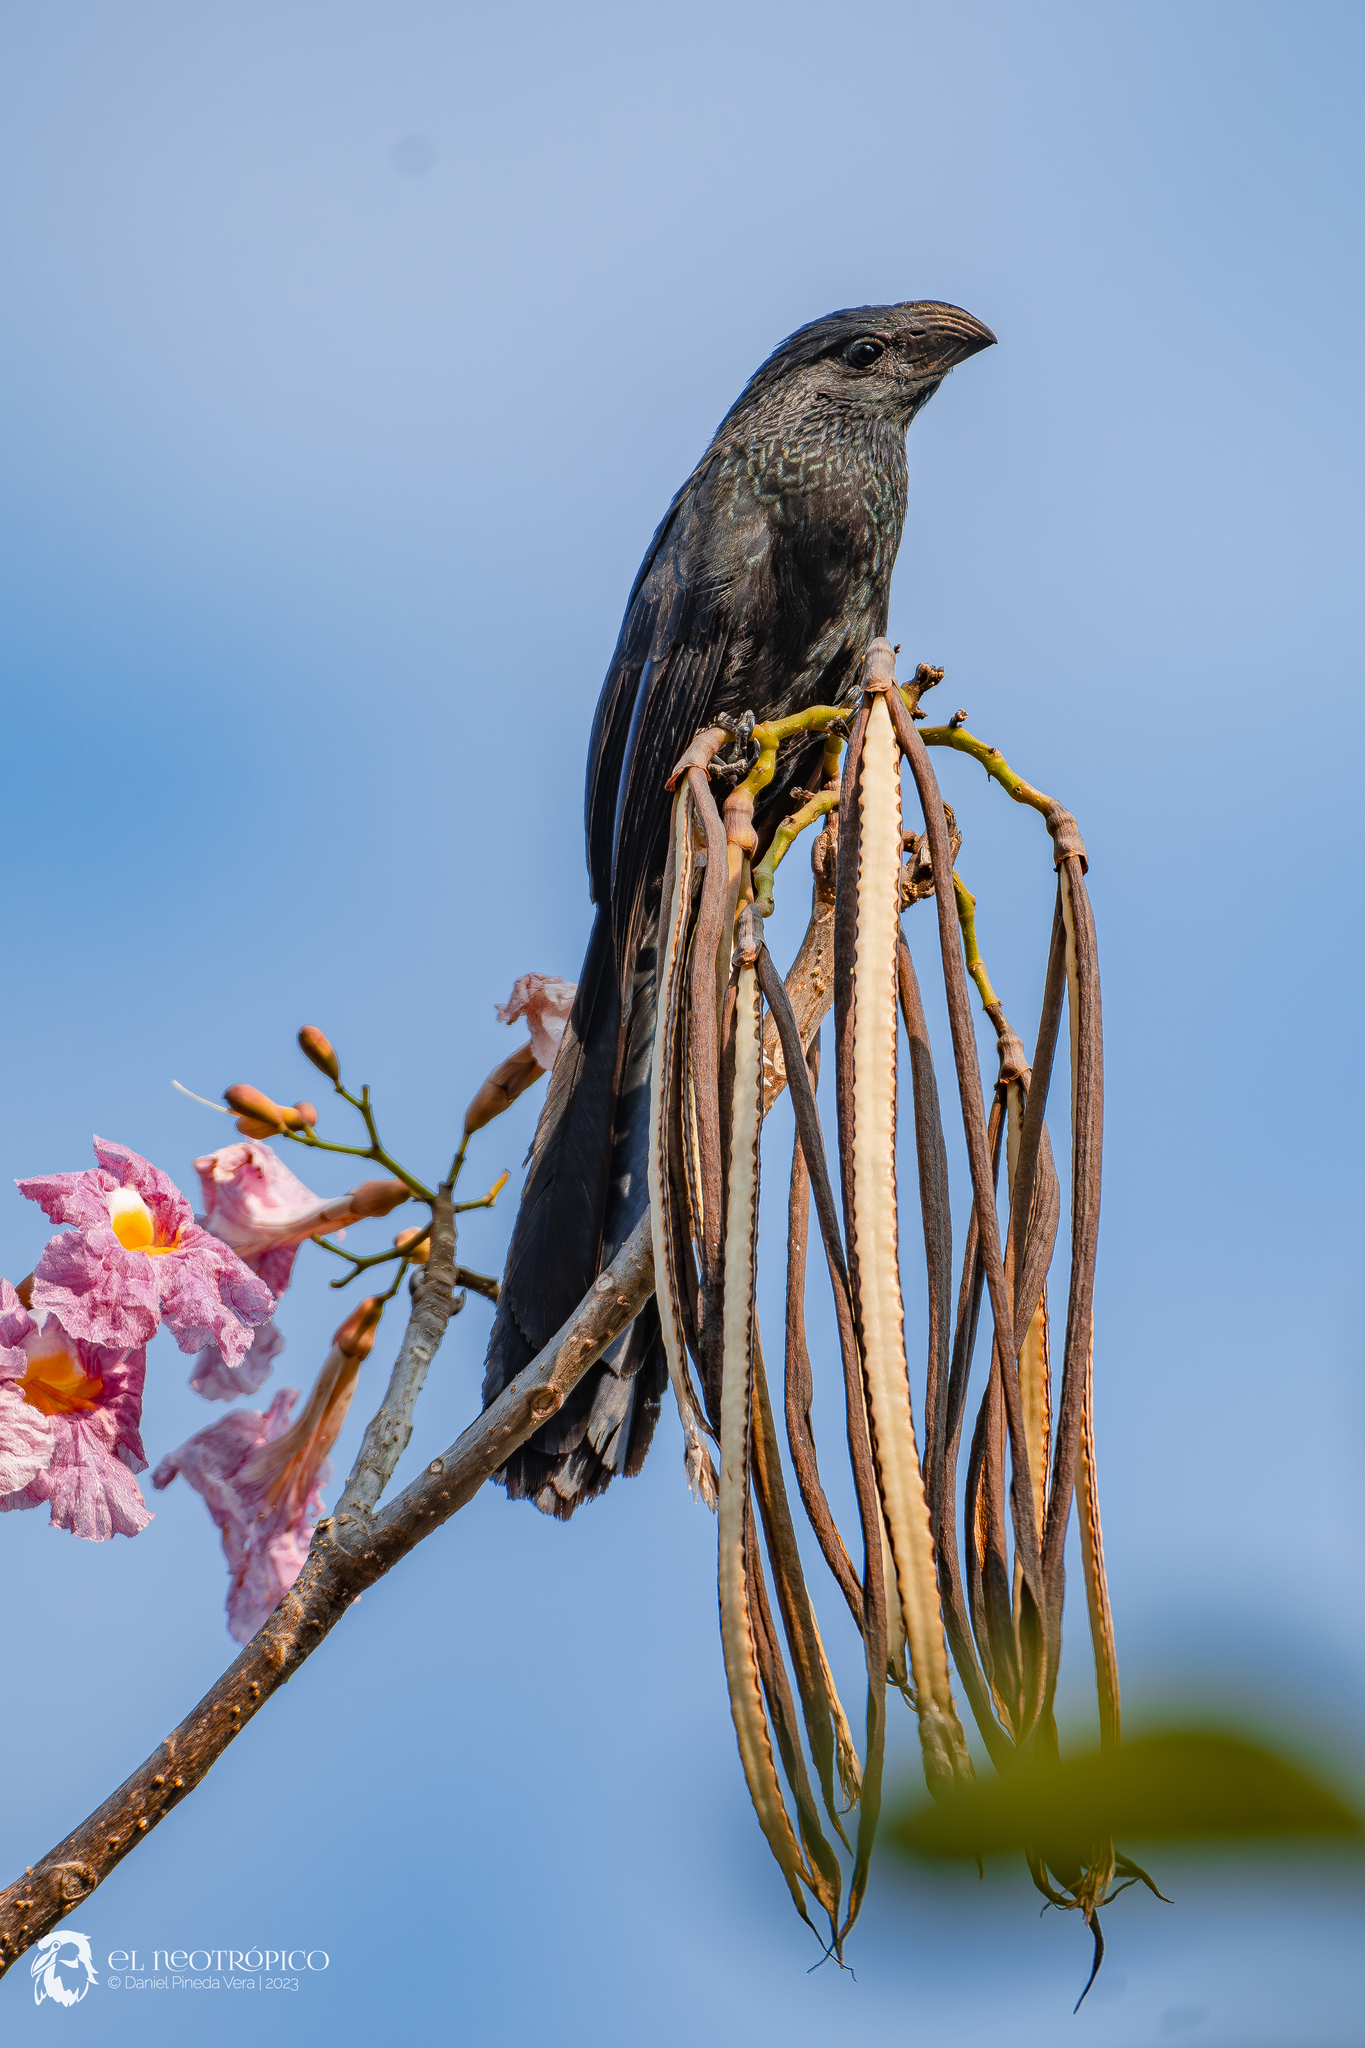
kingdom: Animalia
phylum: Chordata
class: Aves
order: Cuculiformes
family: Cuculidae
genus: Crotophaga
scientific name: Crotophaga sulcirostris
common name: Groove-billed ani
